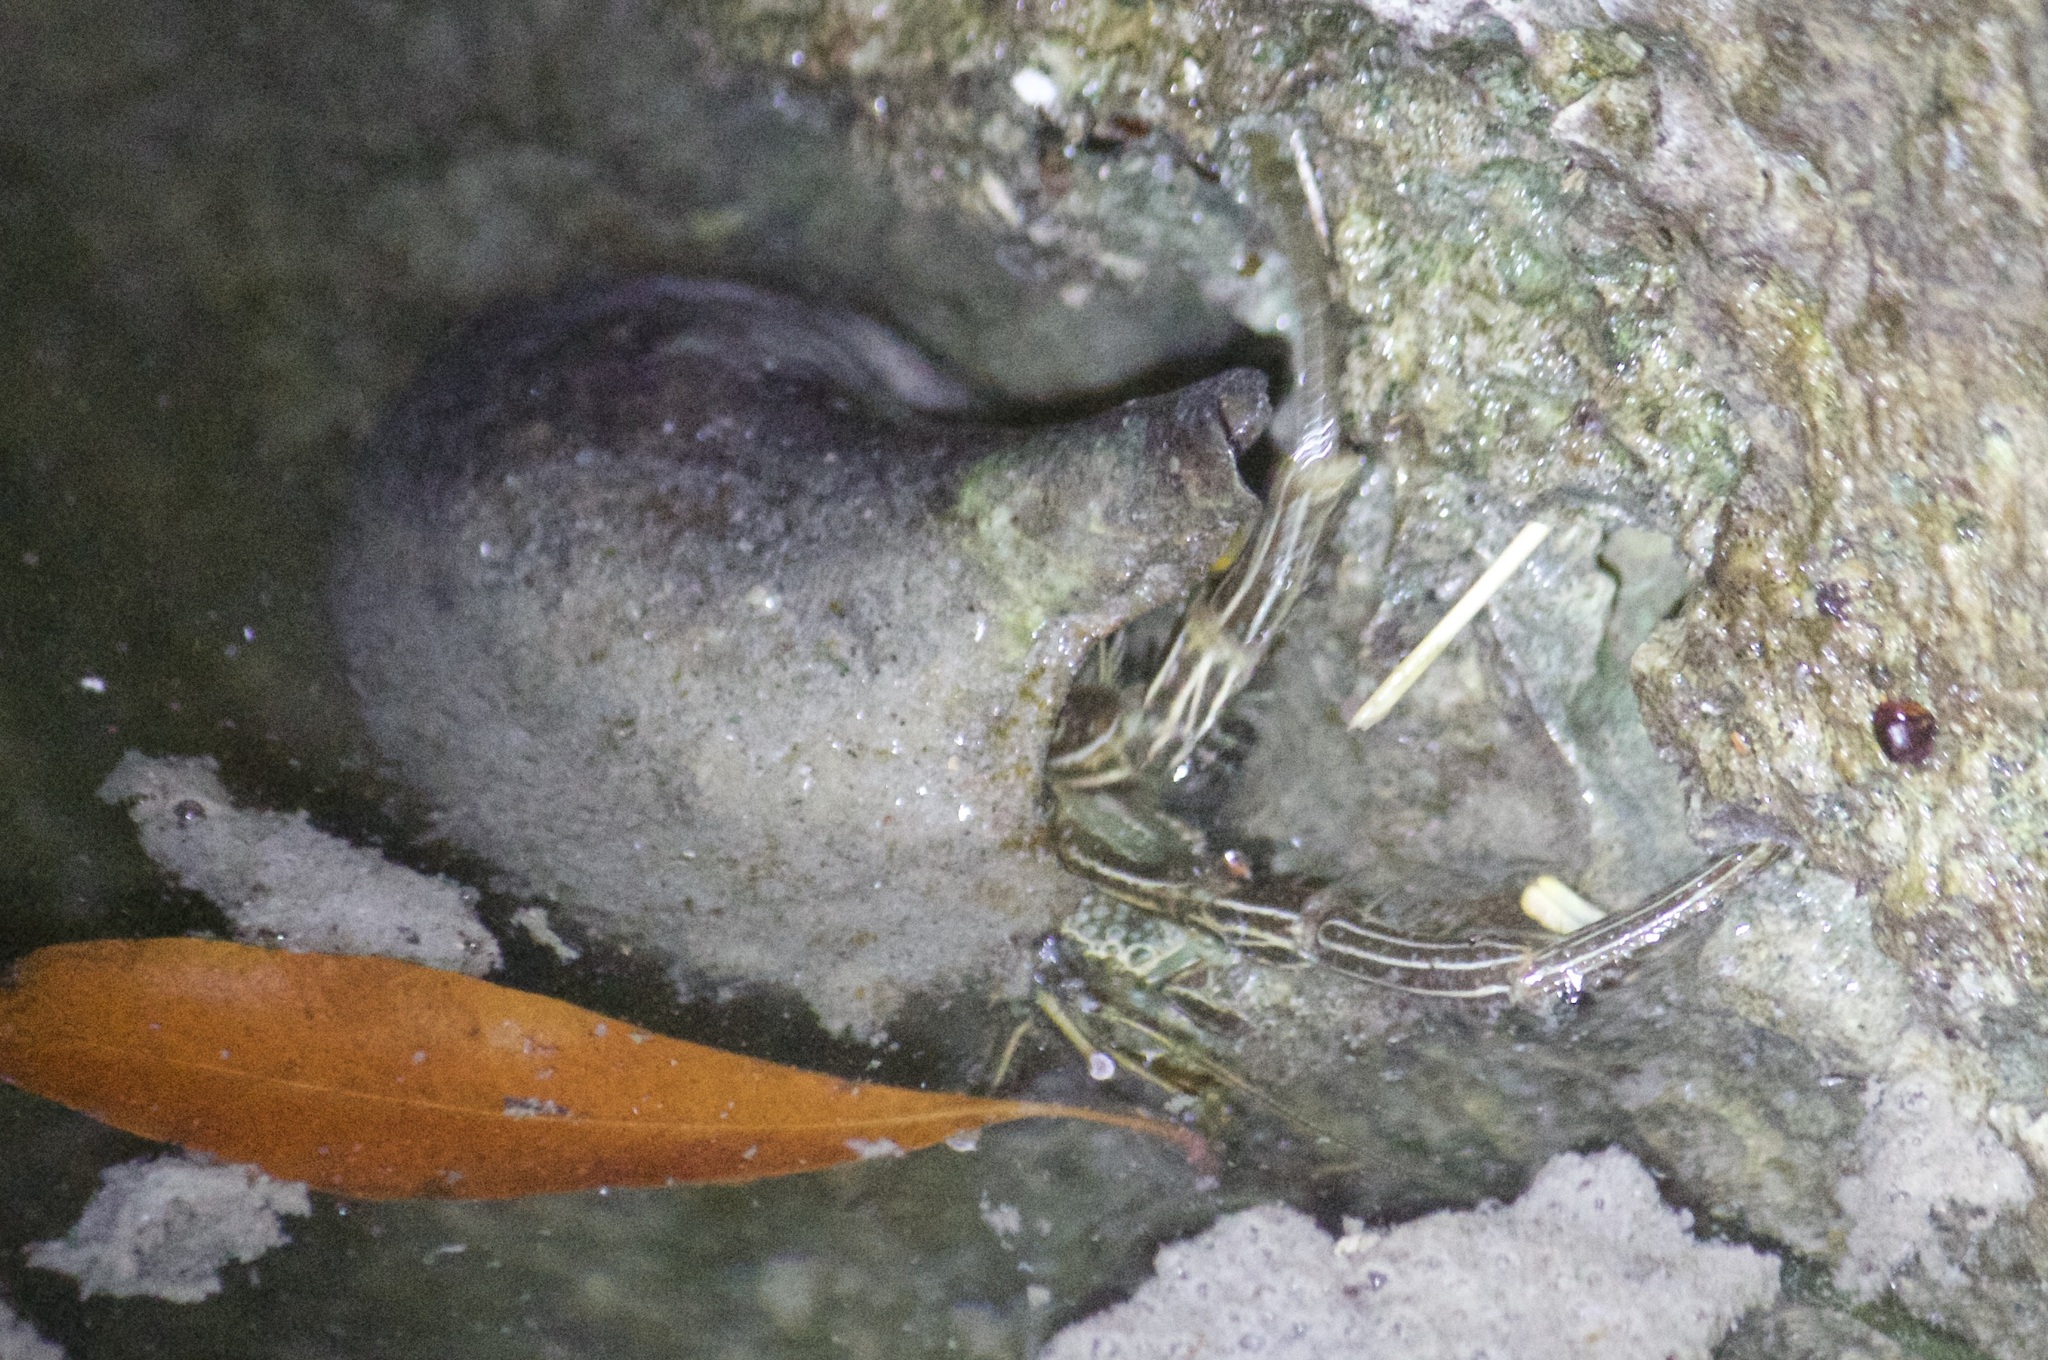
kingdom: Animalia
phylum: Arthropoda
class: Malacostraca
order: Decapoda
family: Diogenidae
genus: Clibanarius
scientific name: Clibanarius vittatus
